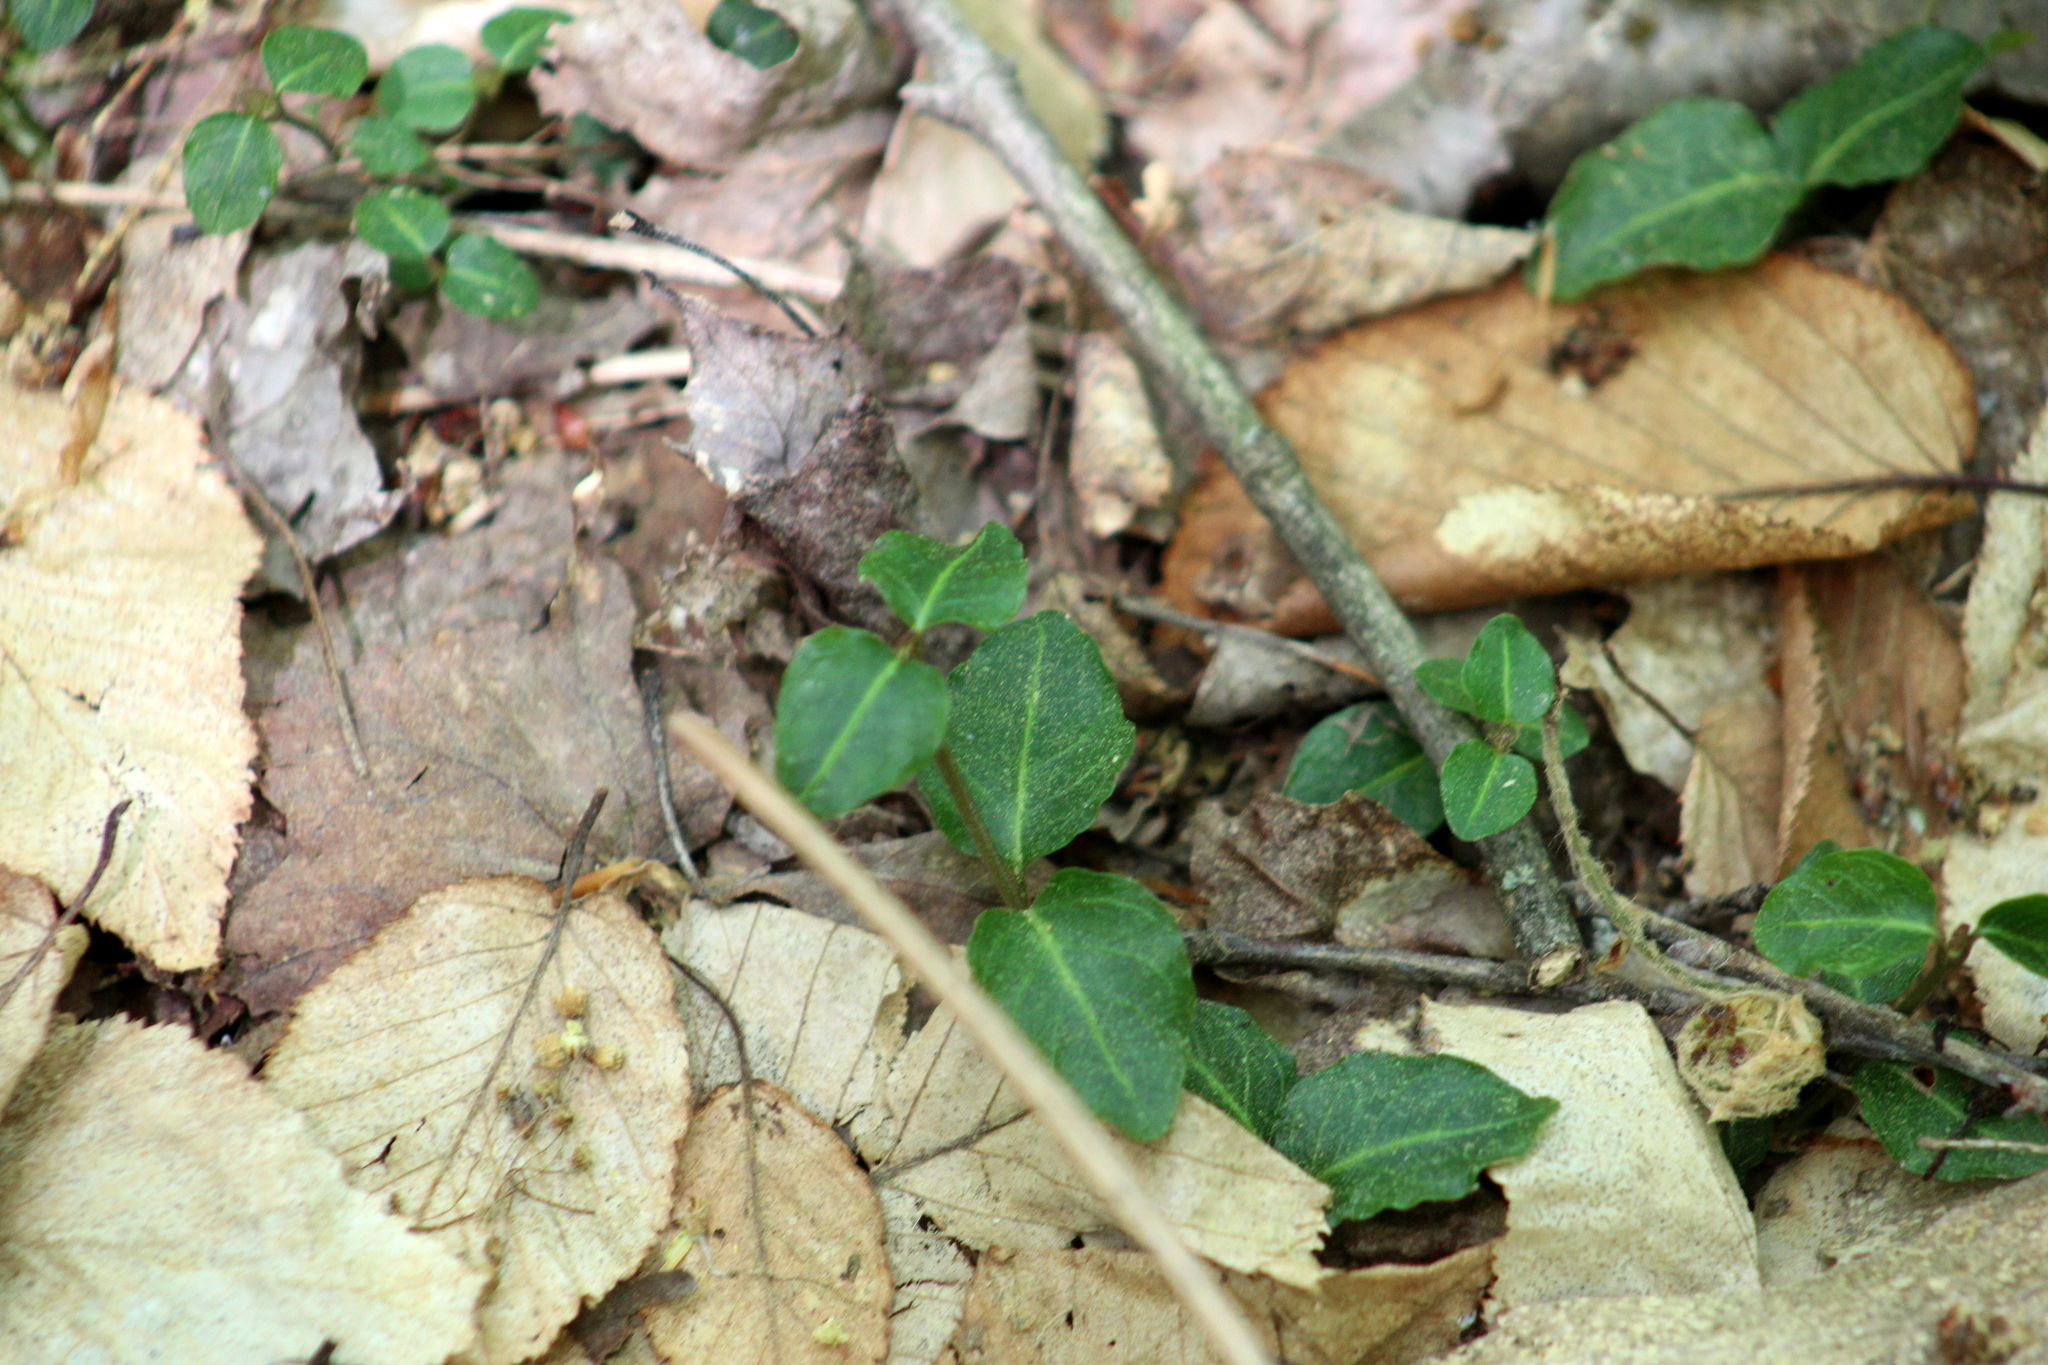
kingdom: Plantae
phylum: Tracheophyta
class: Magnoliopsida
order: Gentianales
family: Rubiaceae
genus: Mitchella
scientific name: Mitchella repens
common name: Partridge-berry
